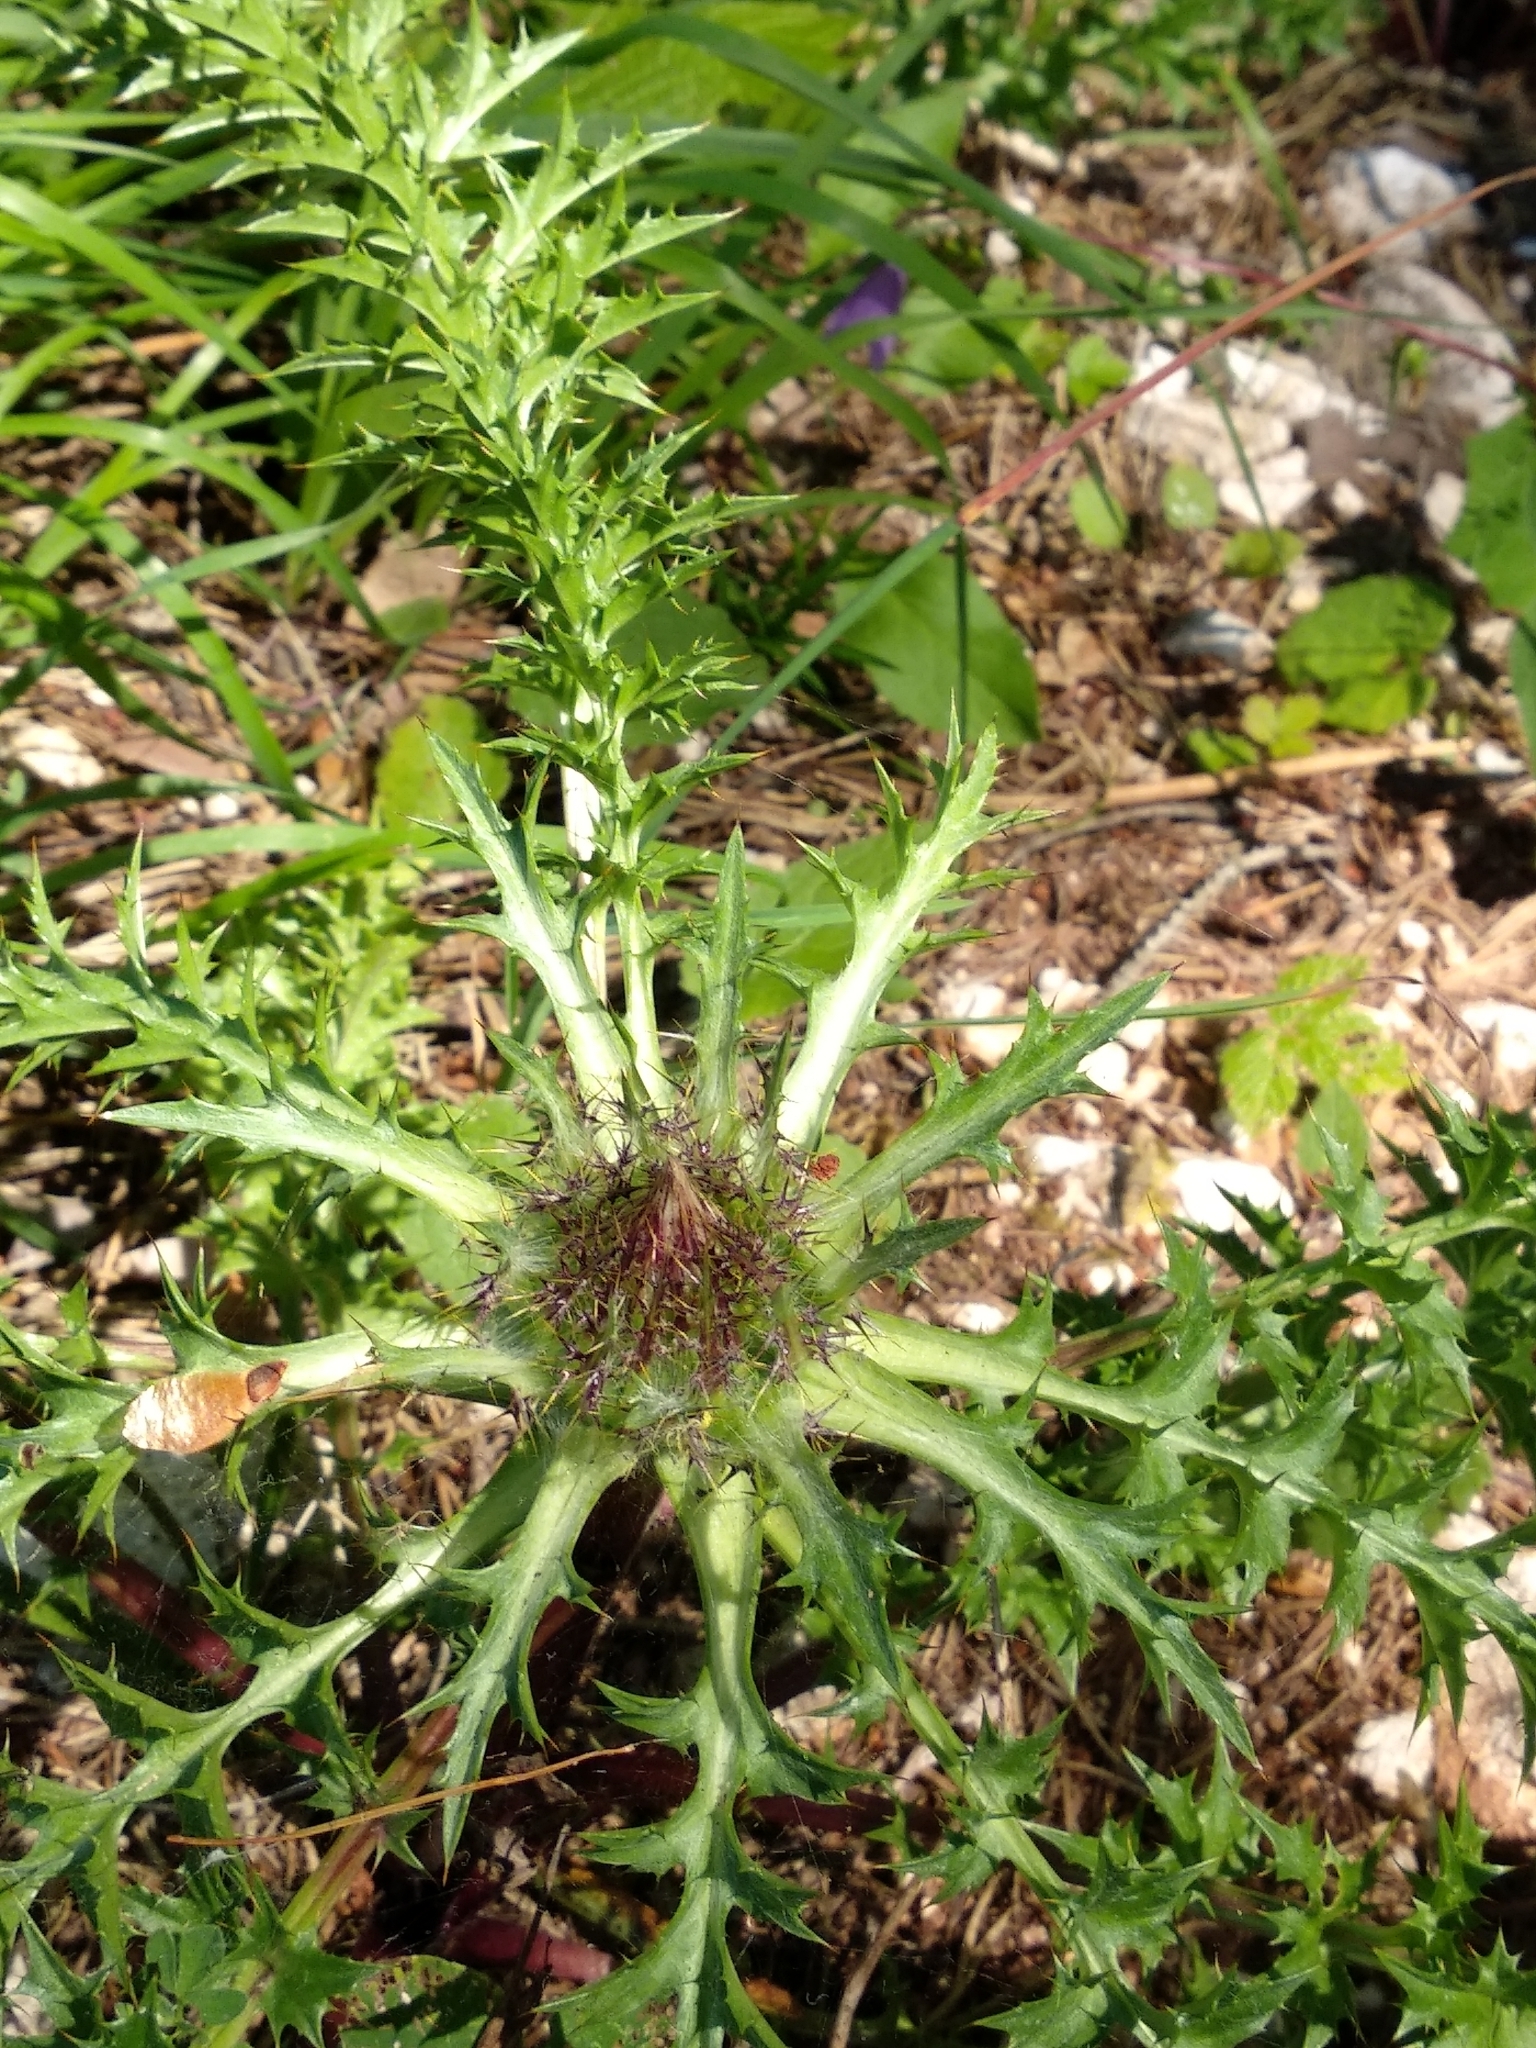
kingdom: Plantae
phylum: Tracheophyta
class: Magnoliopsida
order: Asterales
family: Asteraceae
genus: Carlina
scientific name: Carlina acaulis
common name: Stemless carline thistle
